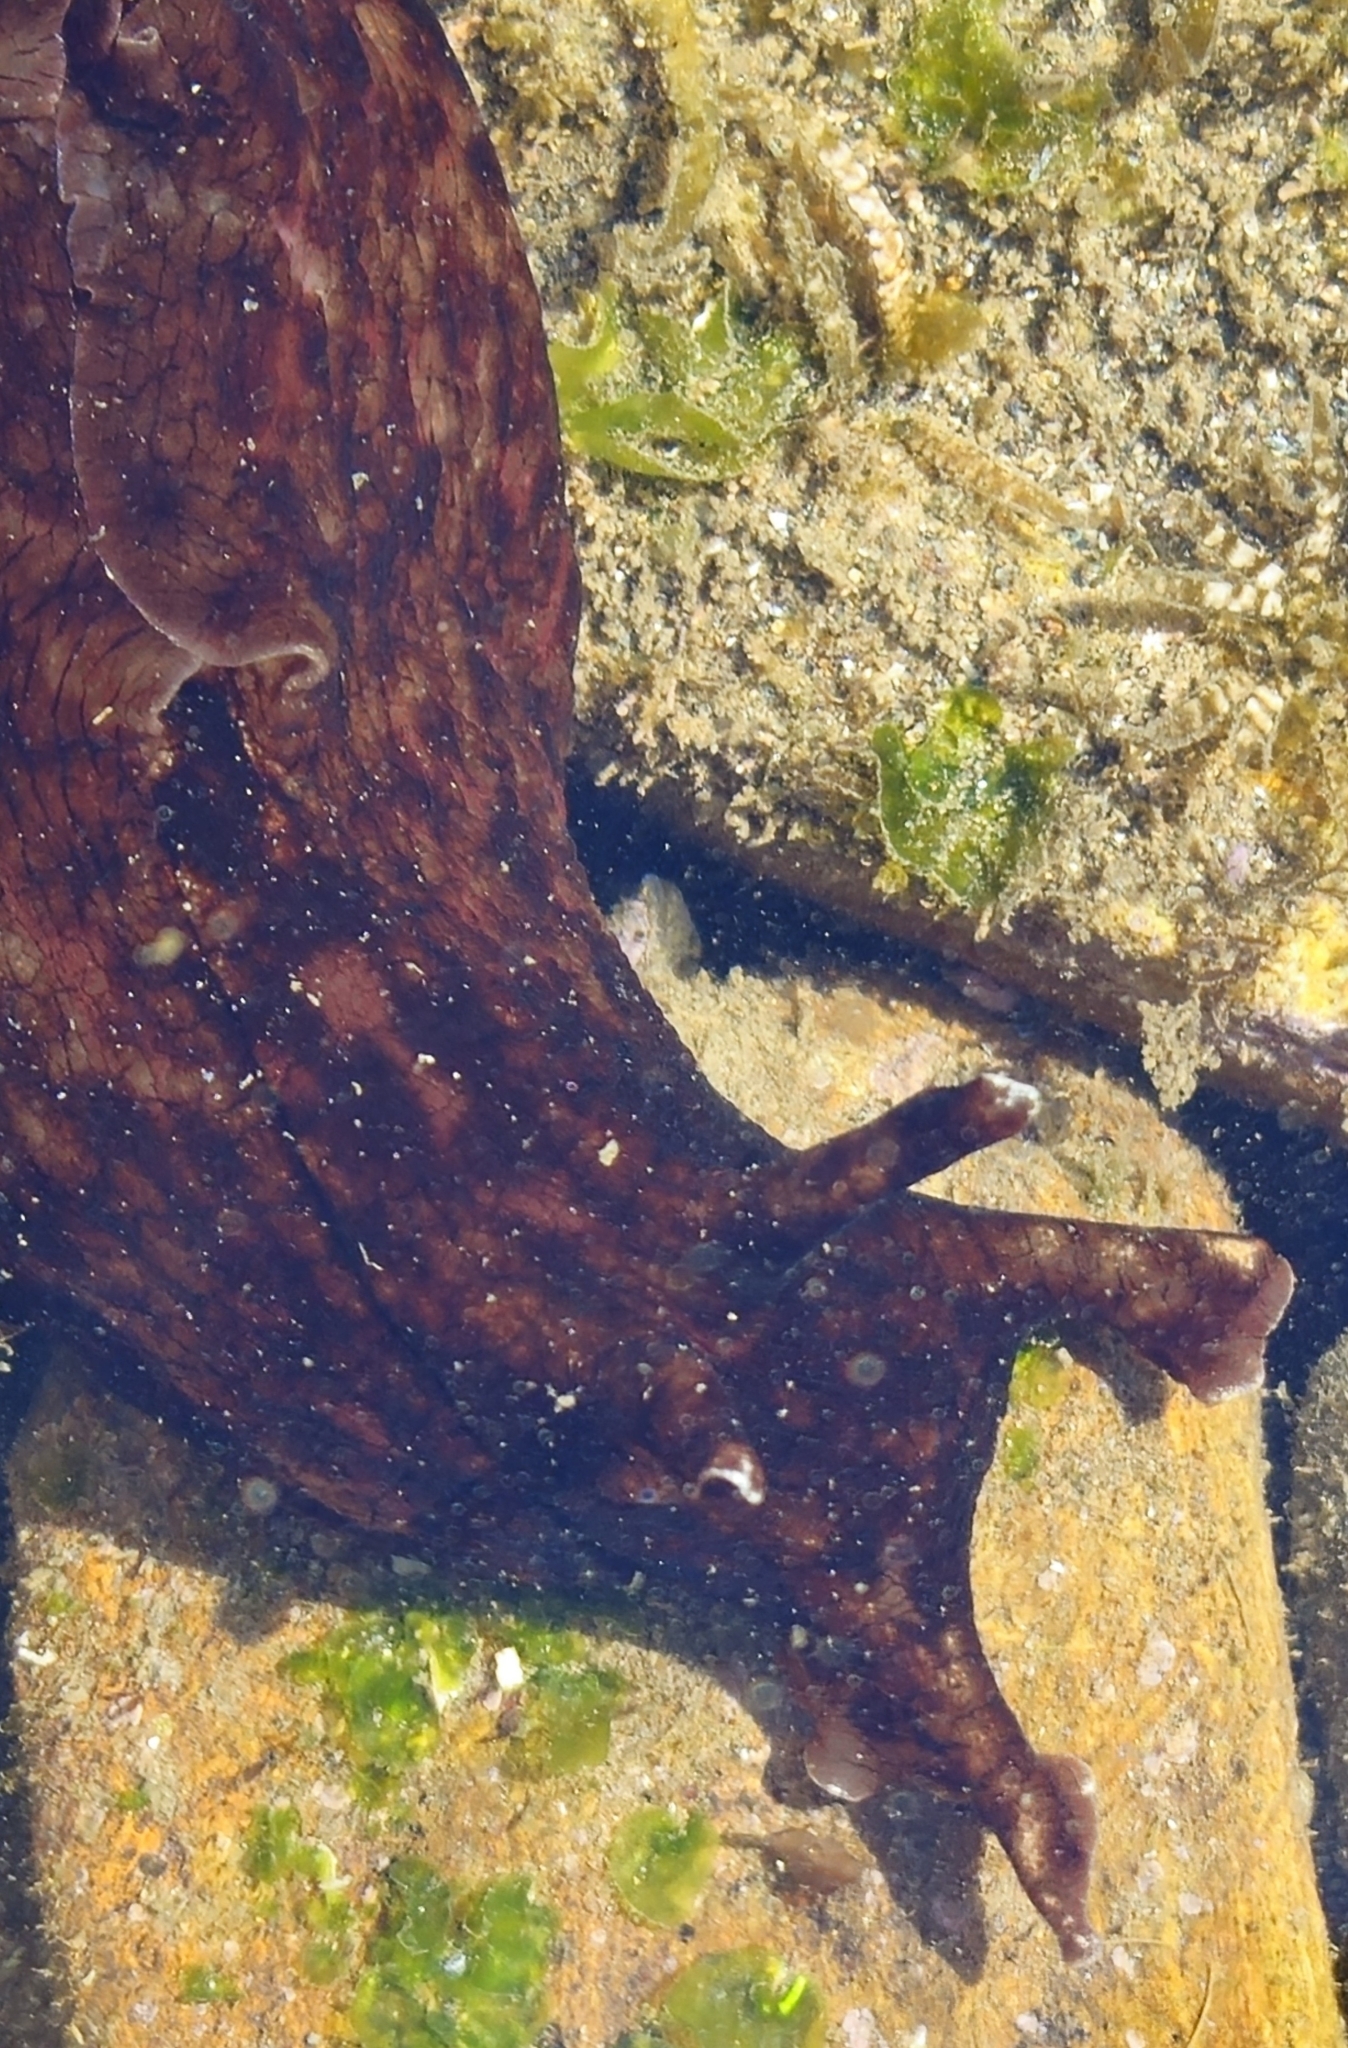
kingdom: Animalia
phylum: Mollusca
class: Gastropoda
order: Aplysiida
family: Aplysiidae
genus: Aplysia
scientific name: Aplysia californica
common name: California seahare
